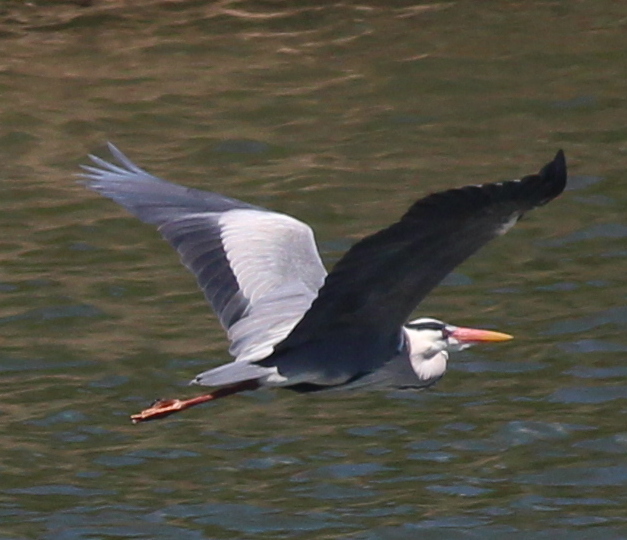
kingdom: Animalia
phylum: Chordata
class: Aves
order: Pelecaniformes
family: Ardeidae
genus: Ardea
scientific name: Ardea cinerea
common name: Grey heron
